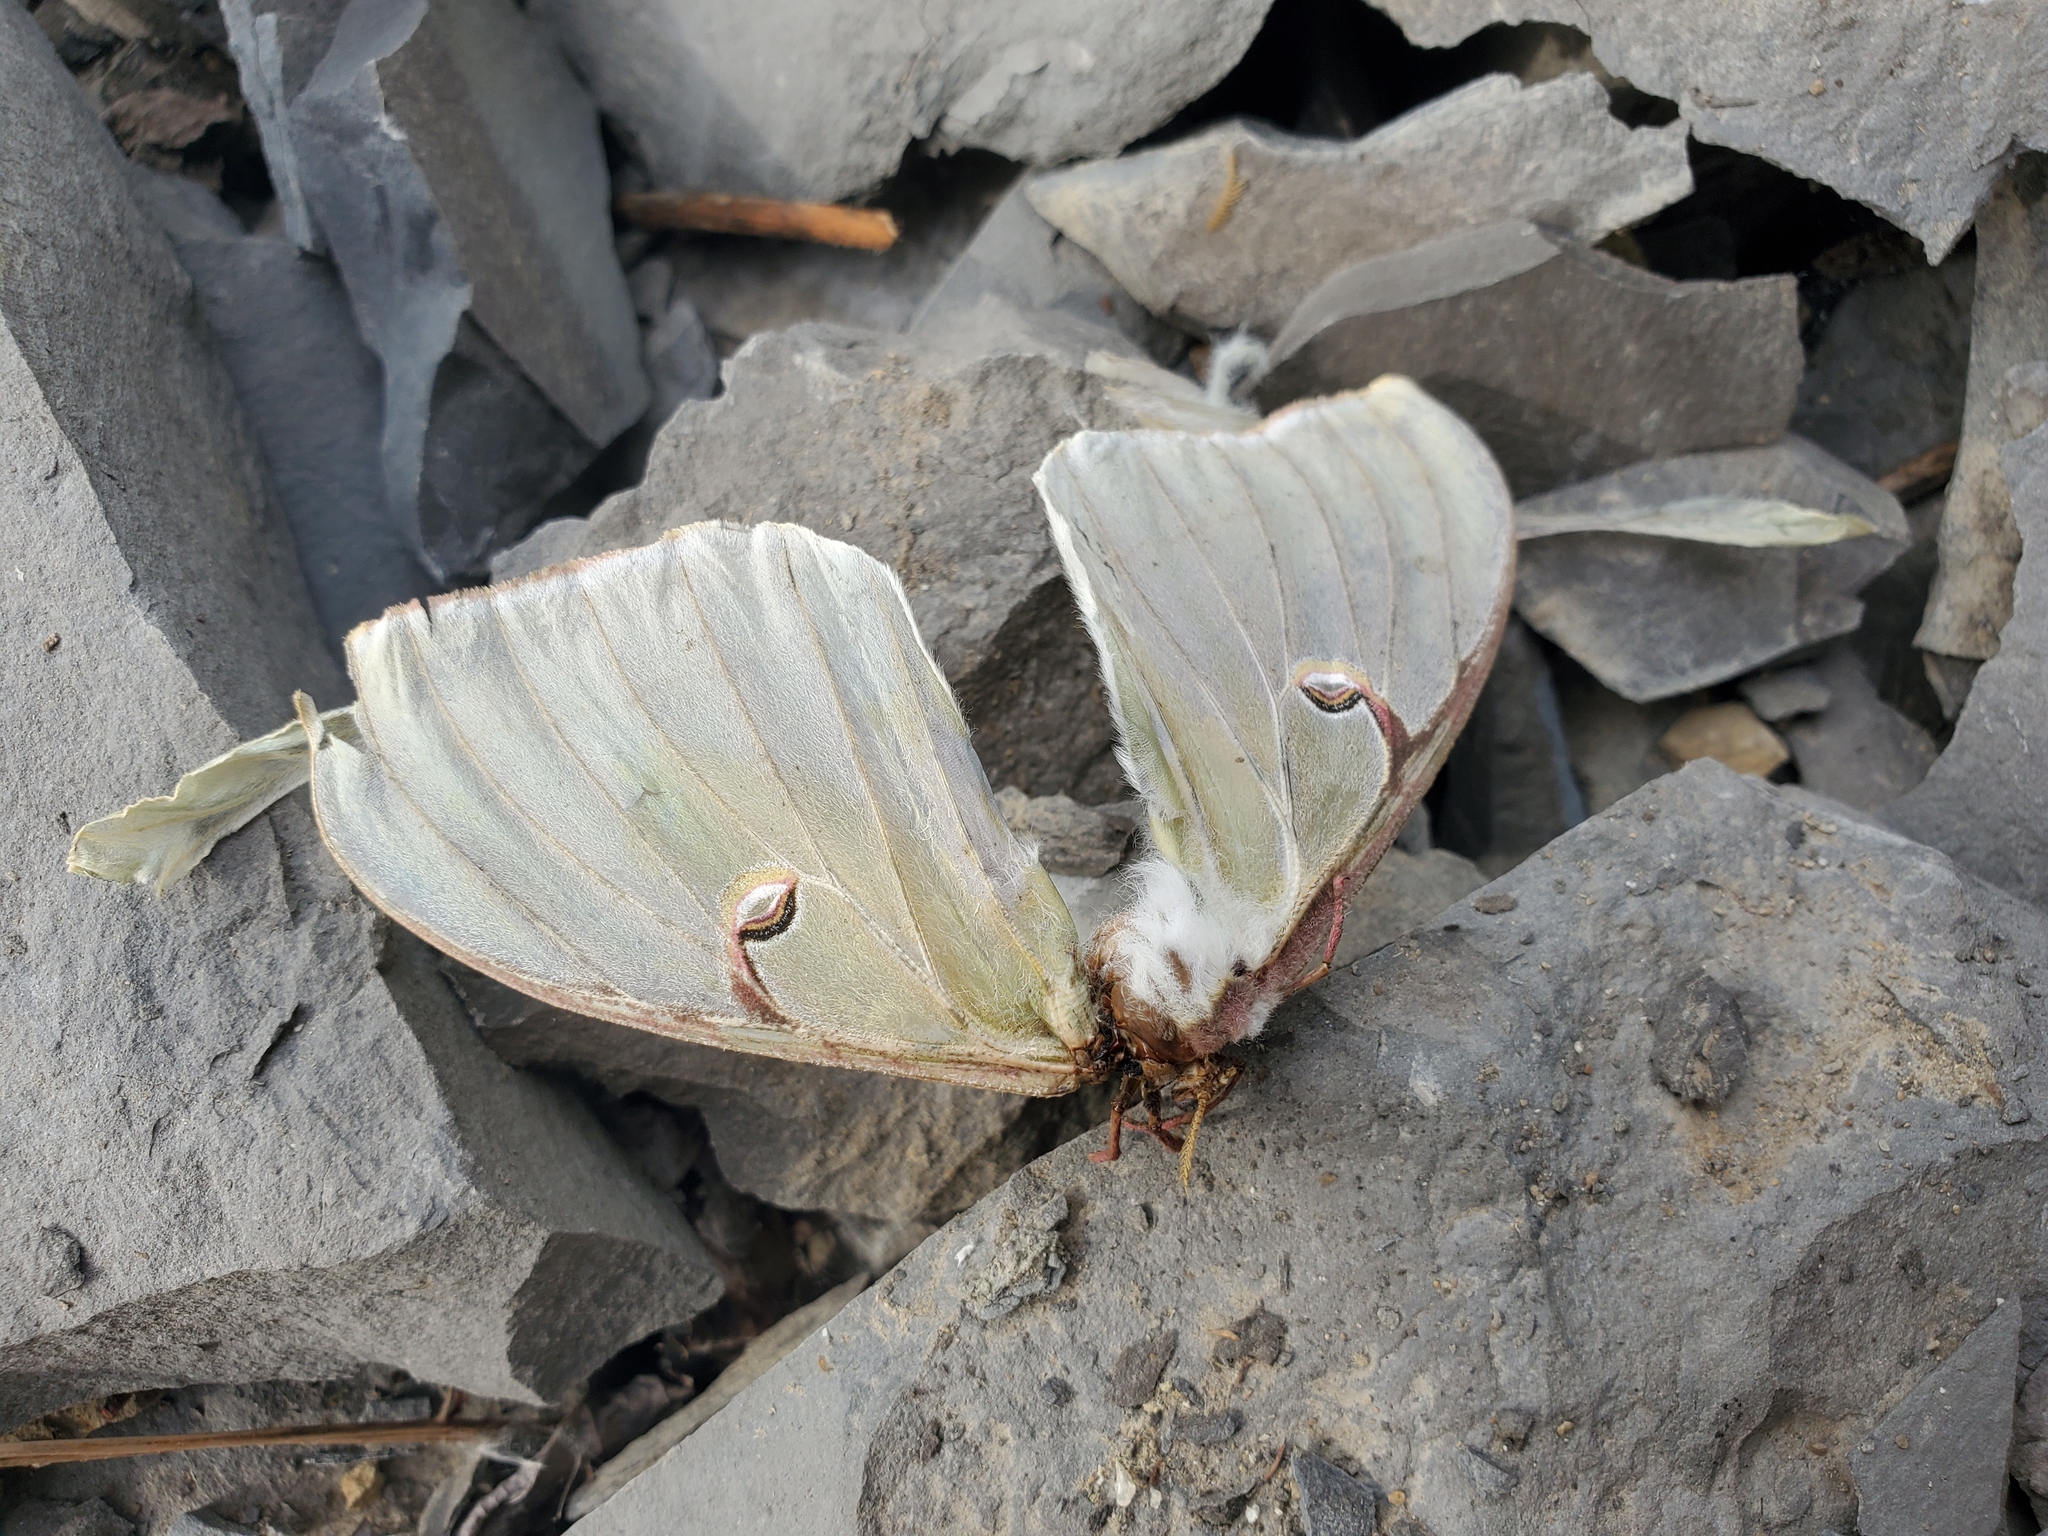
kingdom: Animalia
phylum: Arthropoda
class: Insecta
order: Lepidoptera
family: Saturniidae
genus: Actias
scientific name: Actias luna
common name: Luna moth
